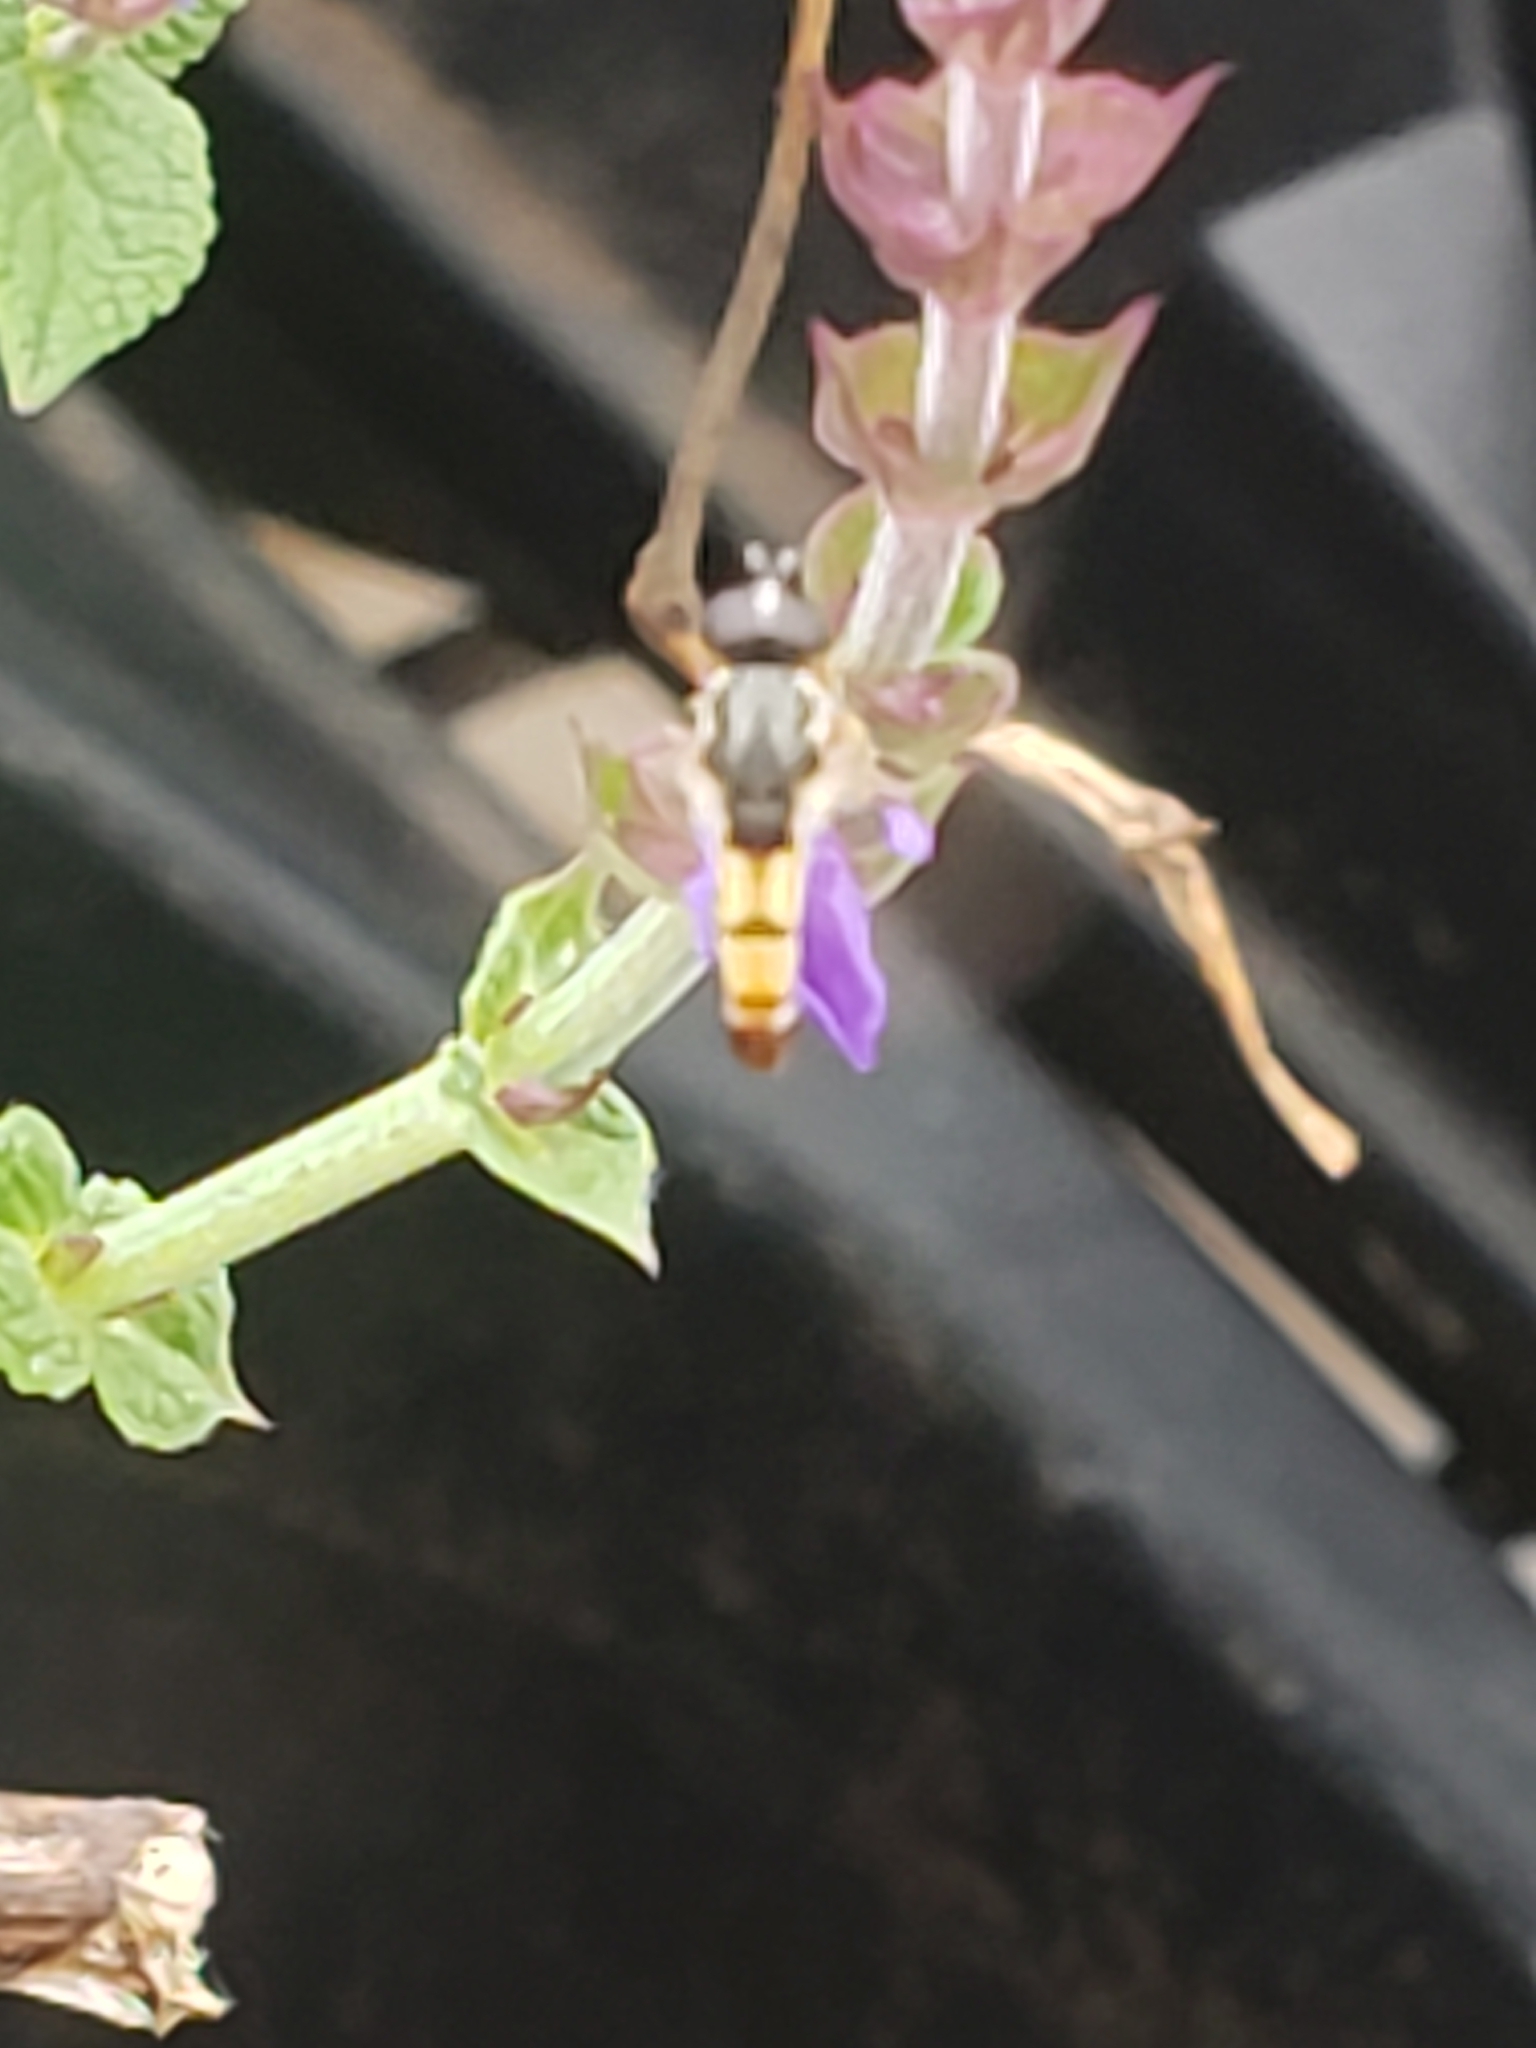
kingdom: Animalia
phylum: Arthropoda
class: Insecta
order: Diptera
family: Syrphidae
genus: Syritta
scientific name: Syritta flaviventris
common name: Syrphid fly
